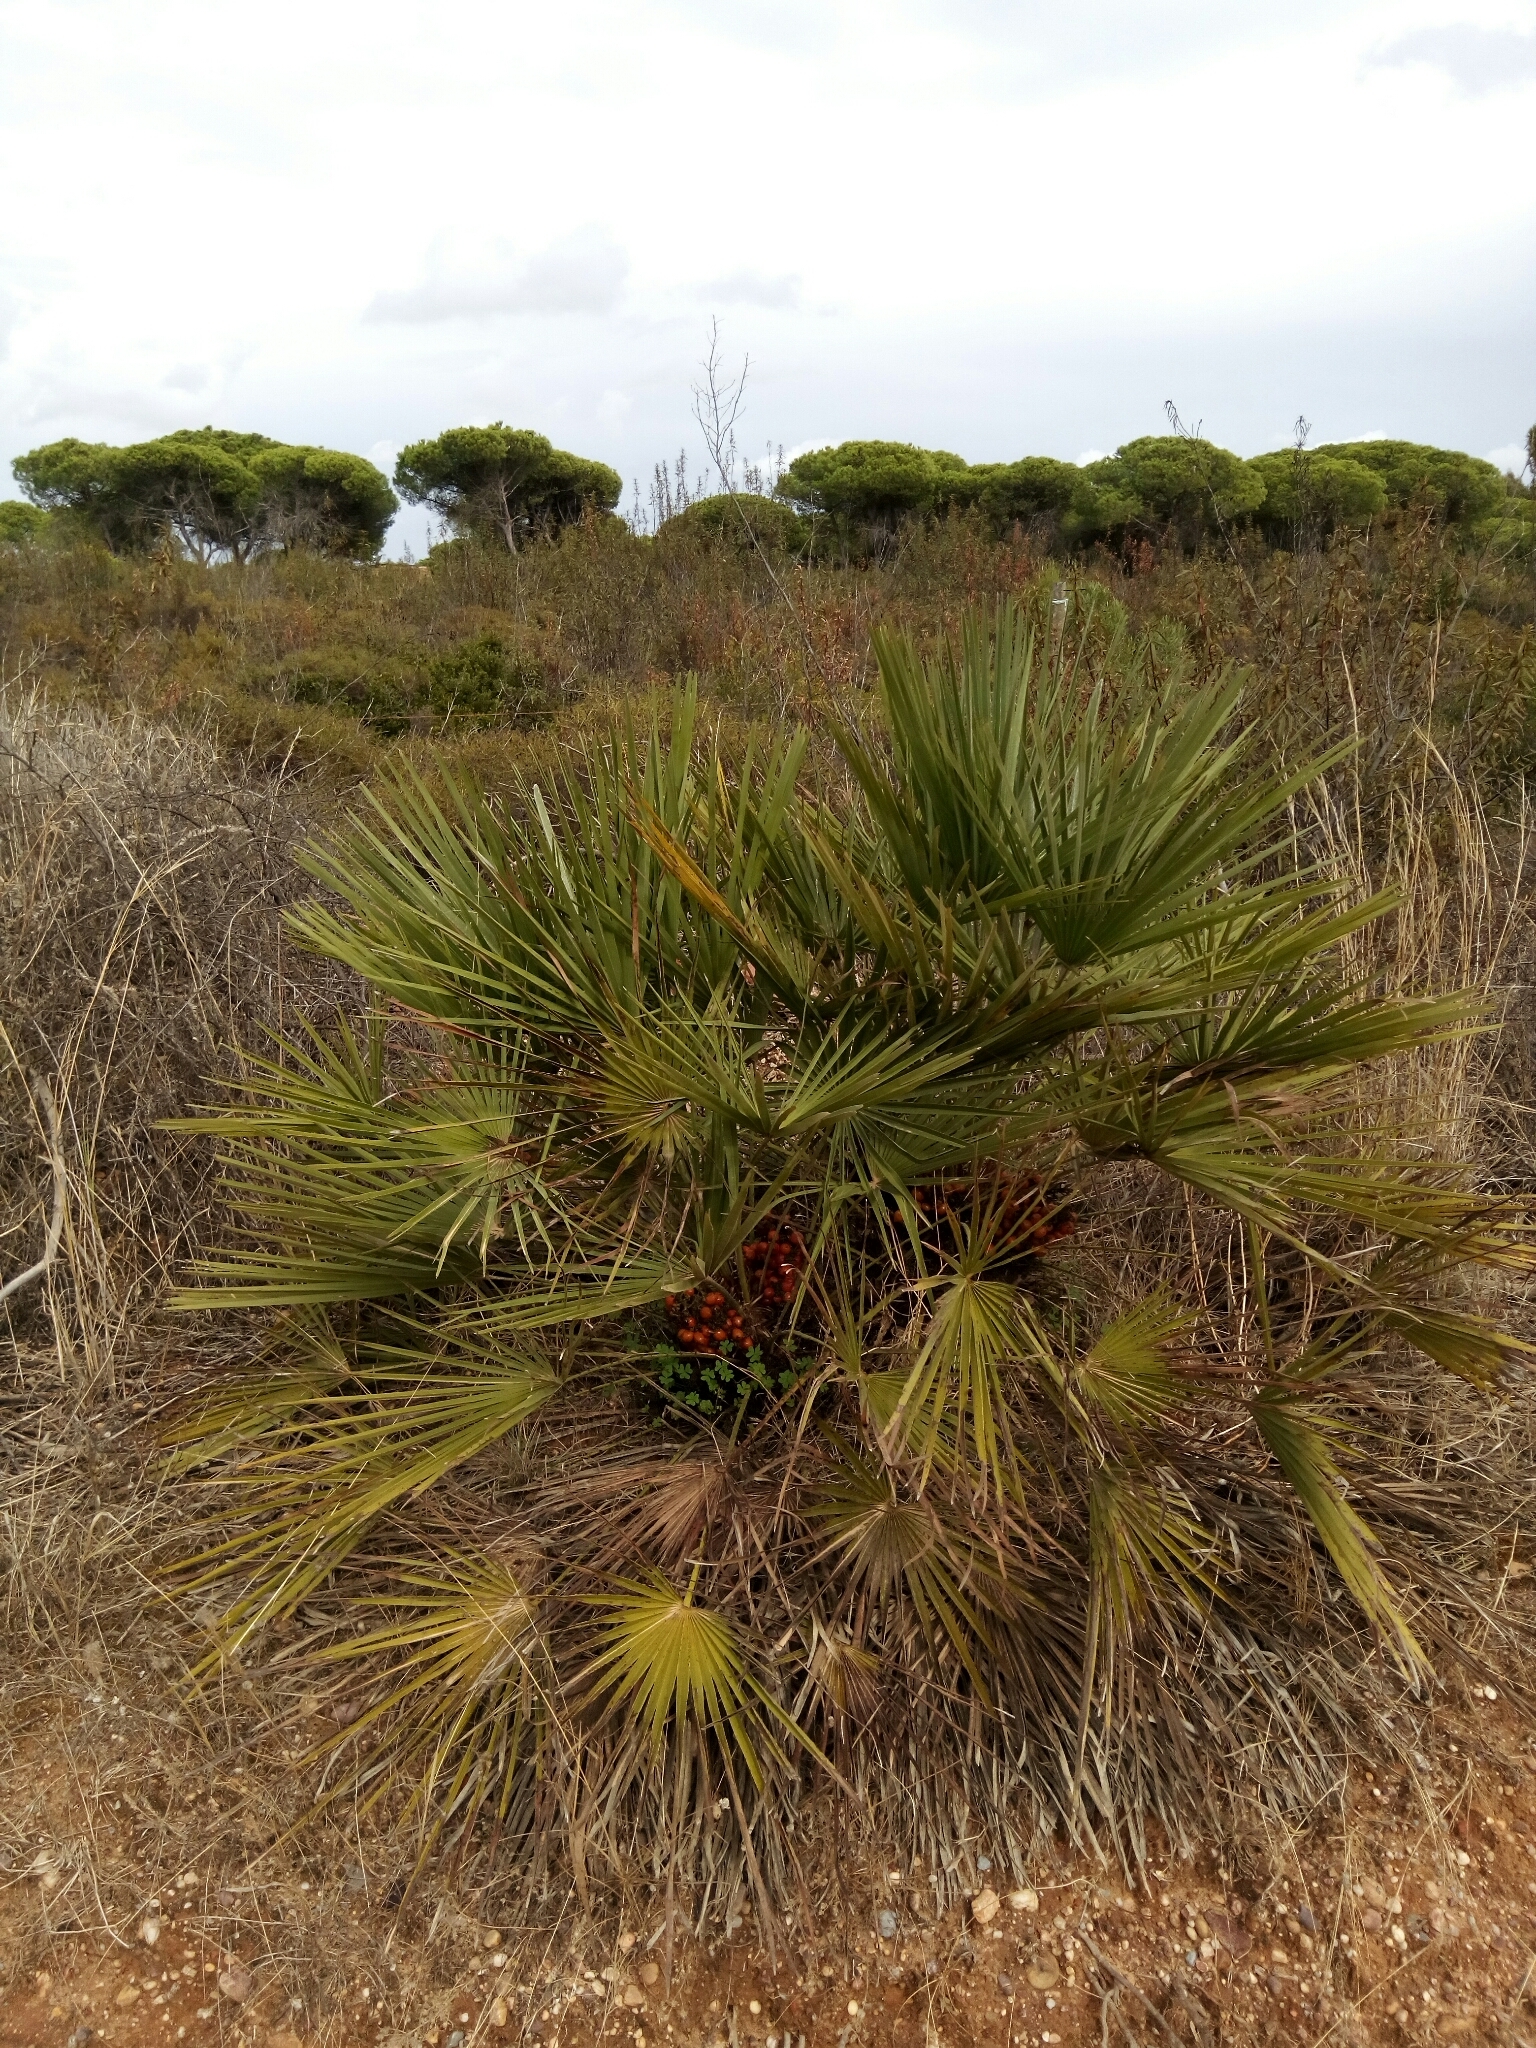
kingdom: Plantae
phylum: Tracheophyta
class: Liliopsida
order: Arecales
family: Arecaceae
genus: Chamaerops
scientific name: Chamaerops humilis
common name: Dwarf fan palm
